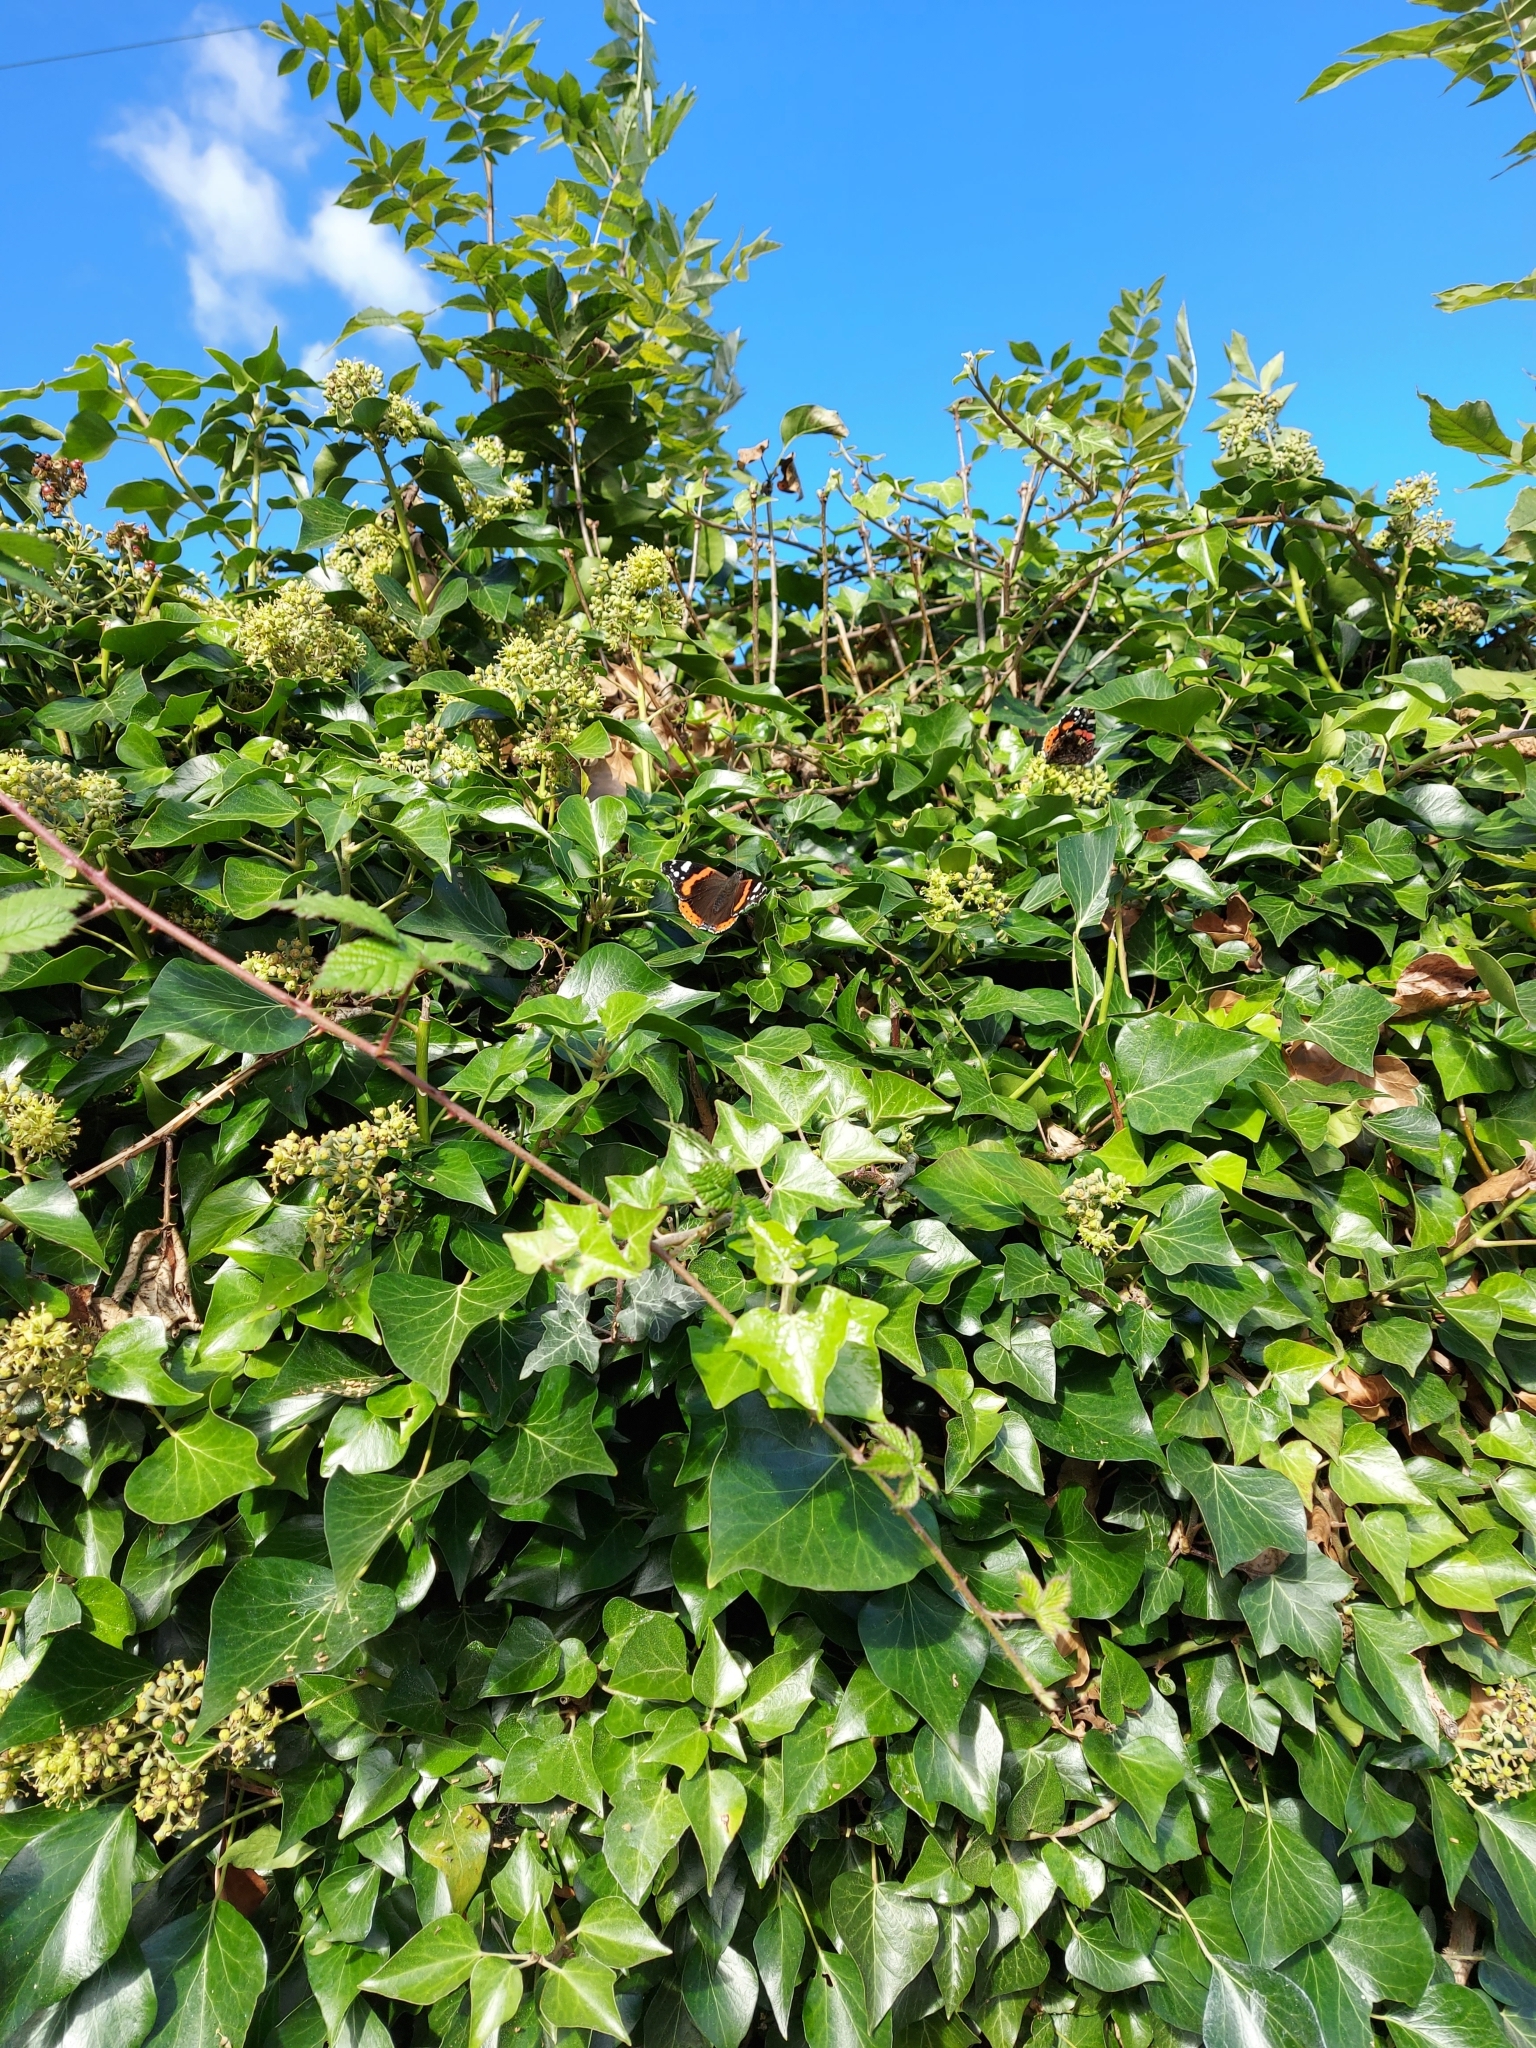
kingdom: Animalia
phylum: Arthropoda
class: Insecta
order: Lepidoptera
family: Nymphalidae
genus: Vanessa
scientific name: Vanessa atalanta
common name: Red admiral
